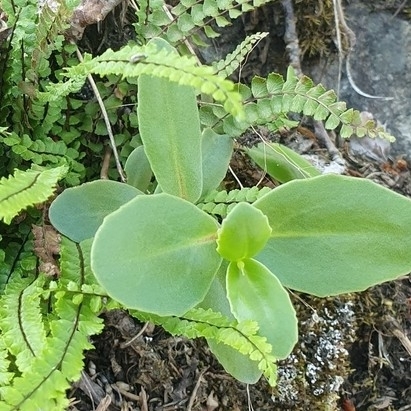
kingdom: Plantae
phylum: Tracheophyta
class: Magnoliopsida
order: Saxifragales
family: Crassulaceae
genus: Hylotelephium
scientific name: Hylotelephium maximum
